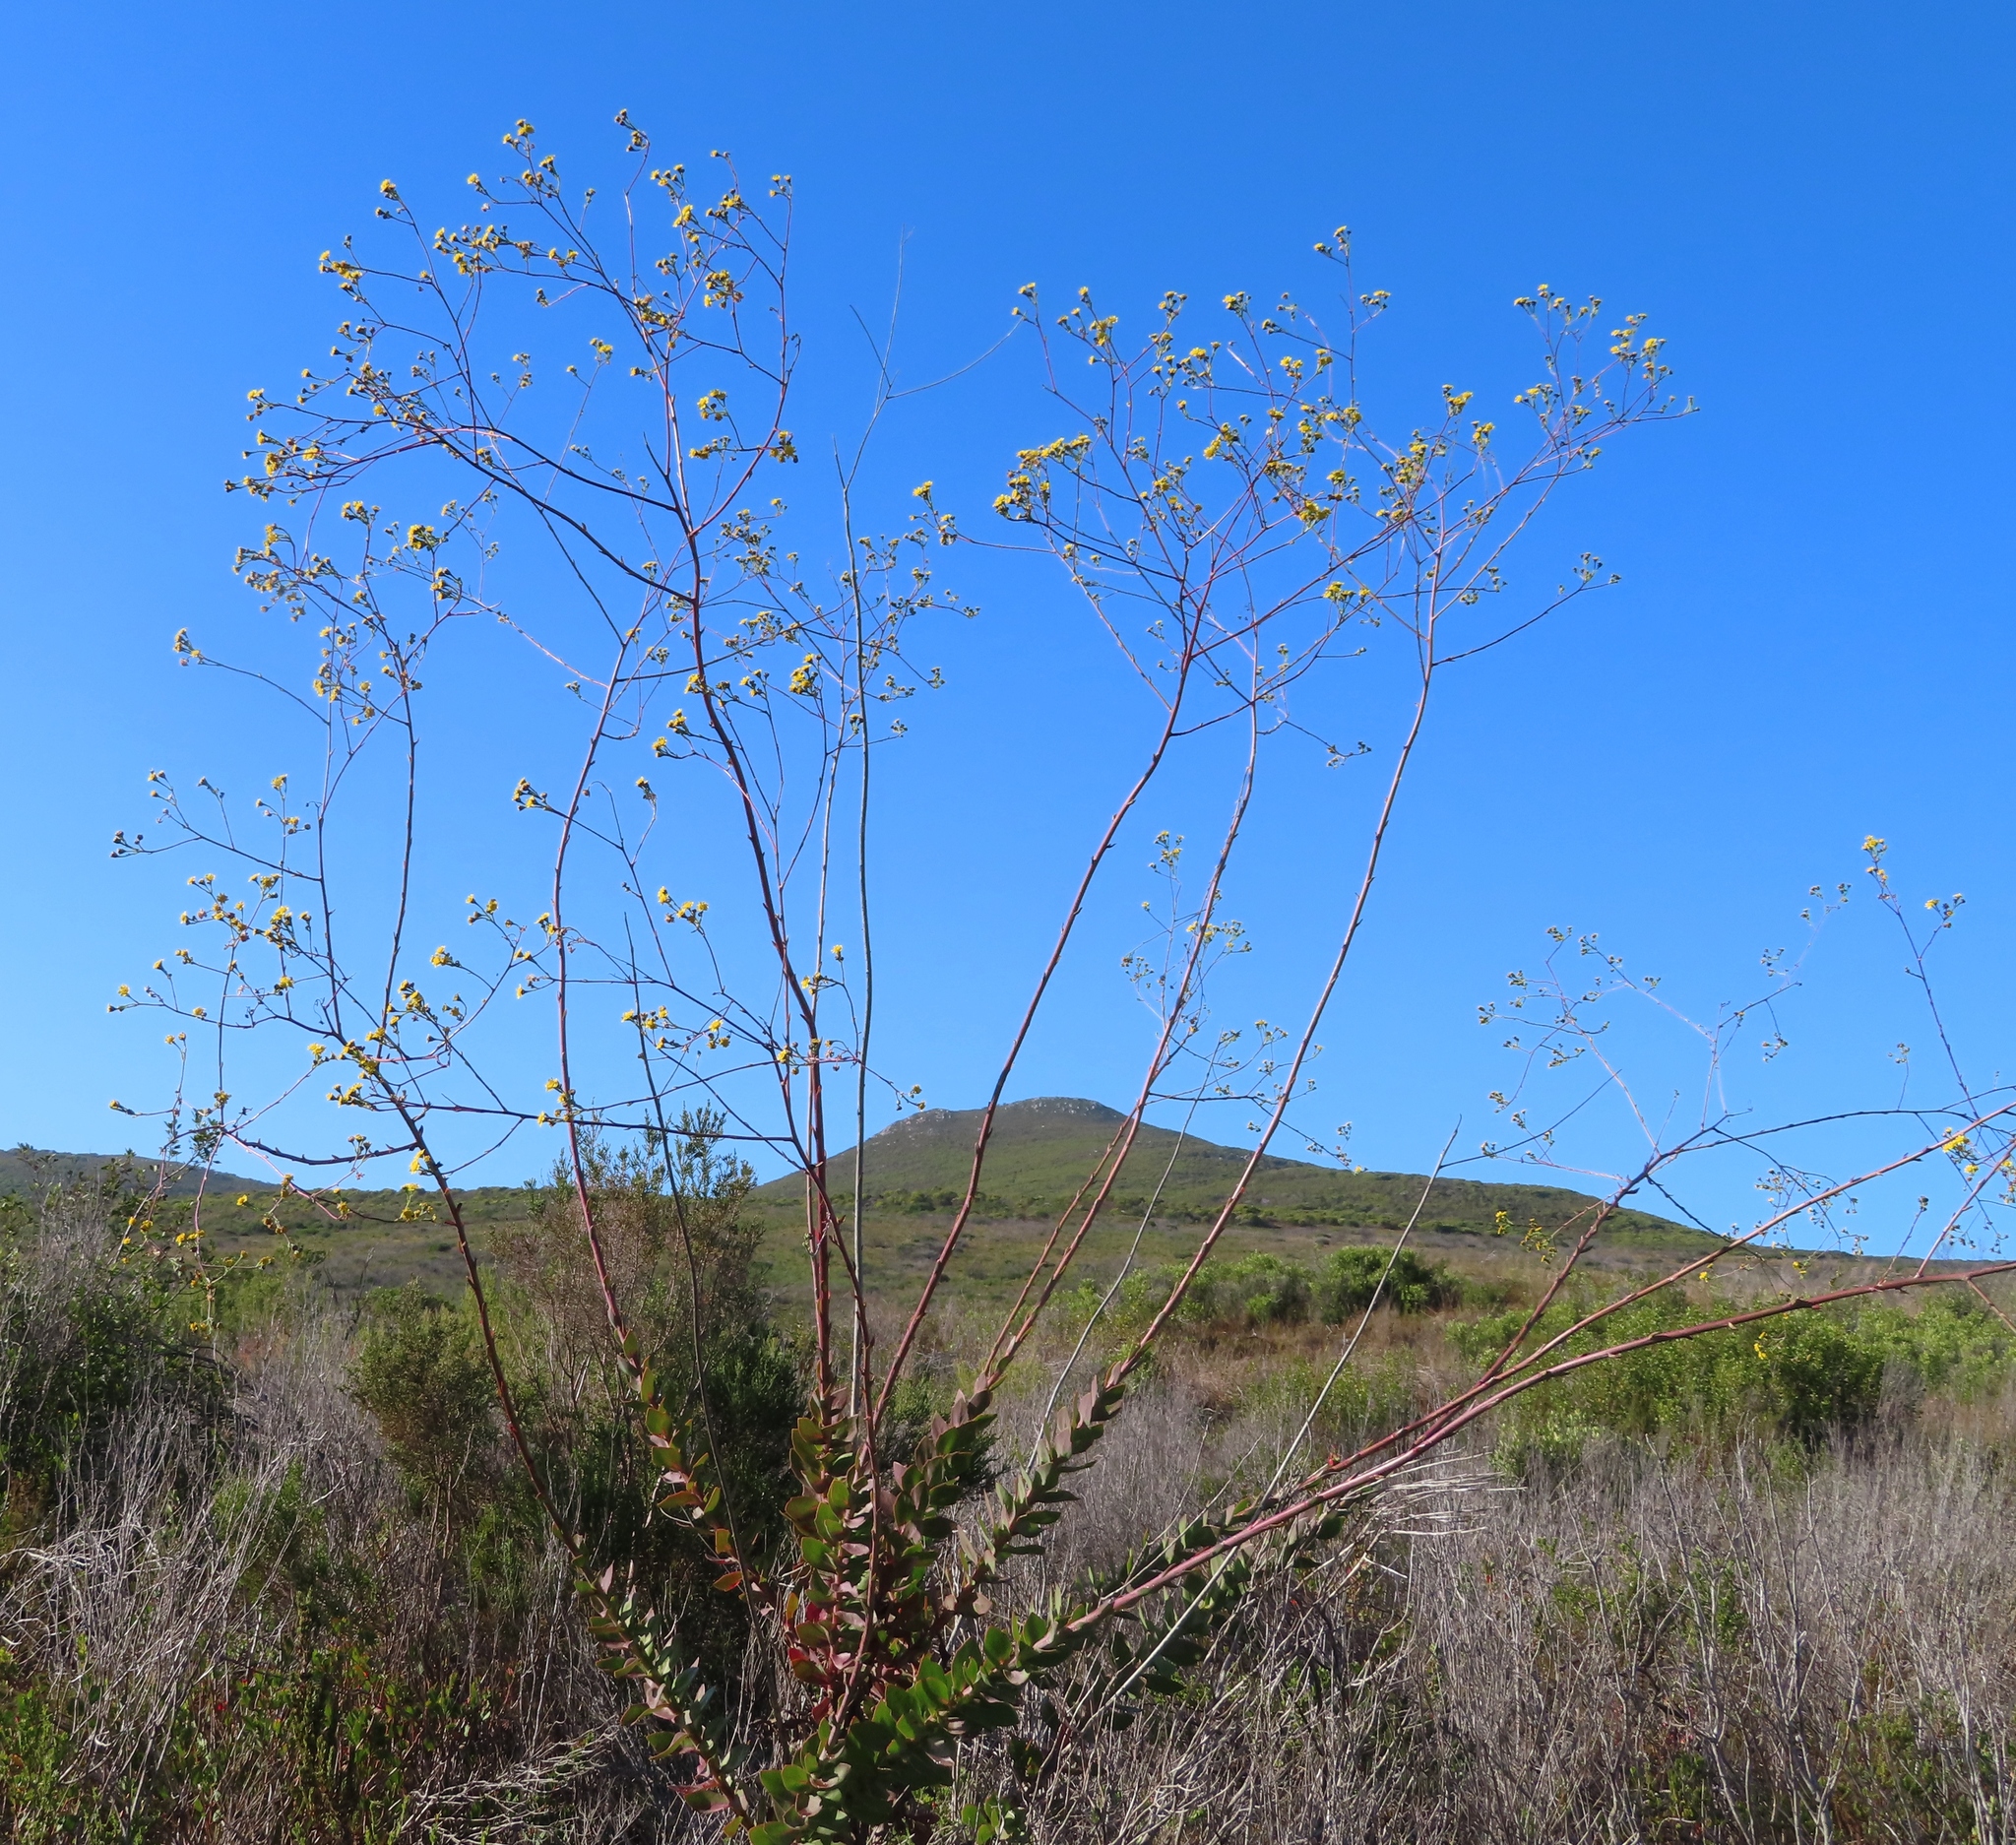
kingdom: Plantae
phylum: Tracheophyta
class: Magnoliopsida
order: Asterales
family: Asteraceae
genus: Othonna
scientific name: Othonna quinquedentata
